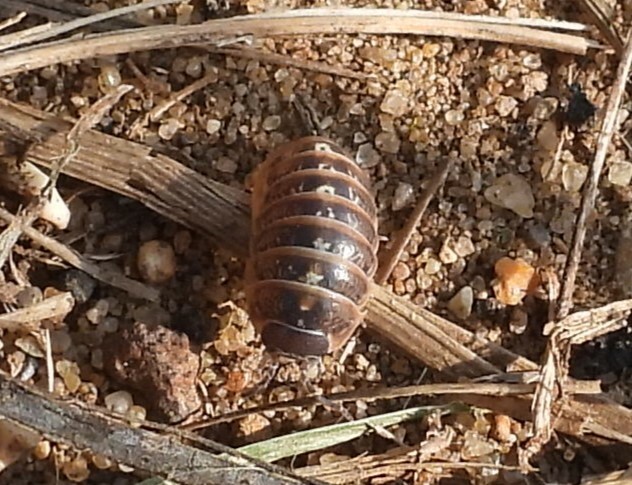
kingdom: Animalia
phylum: Arthropoda
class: Malacostraca
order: Isopoda
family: Armadillidiidae
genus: Armadillidium
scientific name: Armadillidium vulgare
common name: Common pill woodlouse
